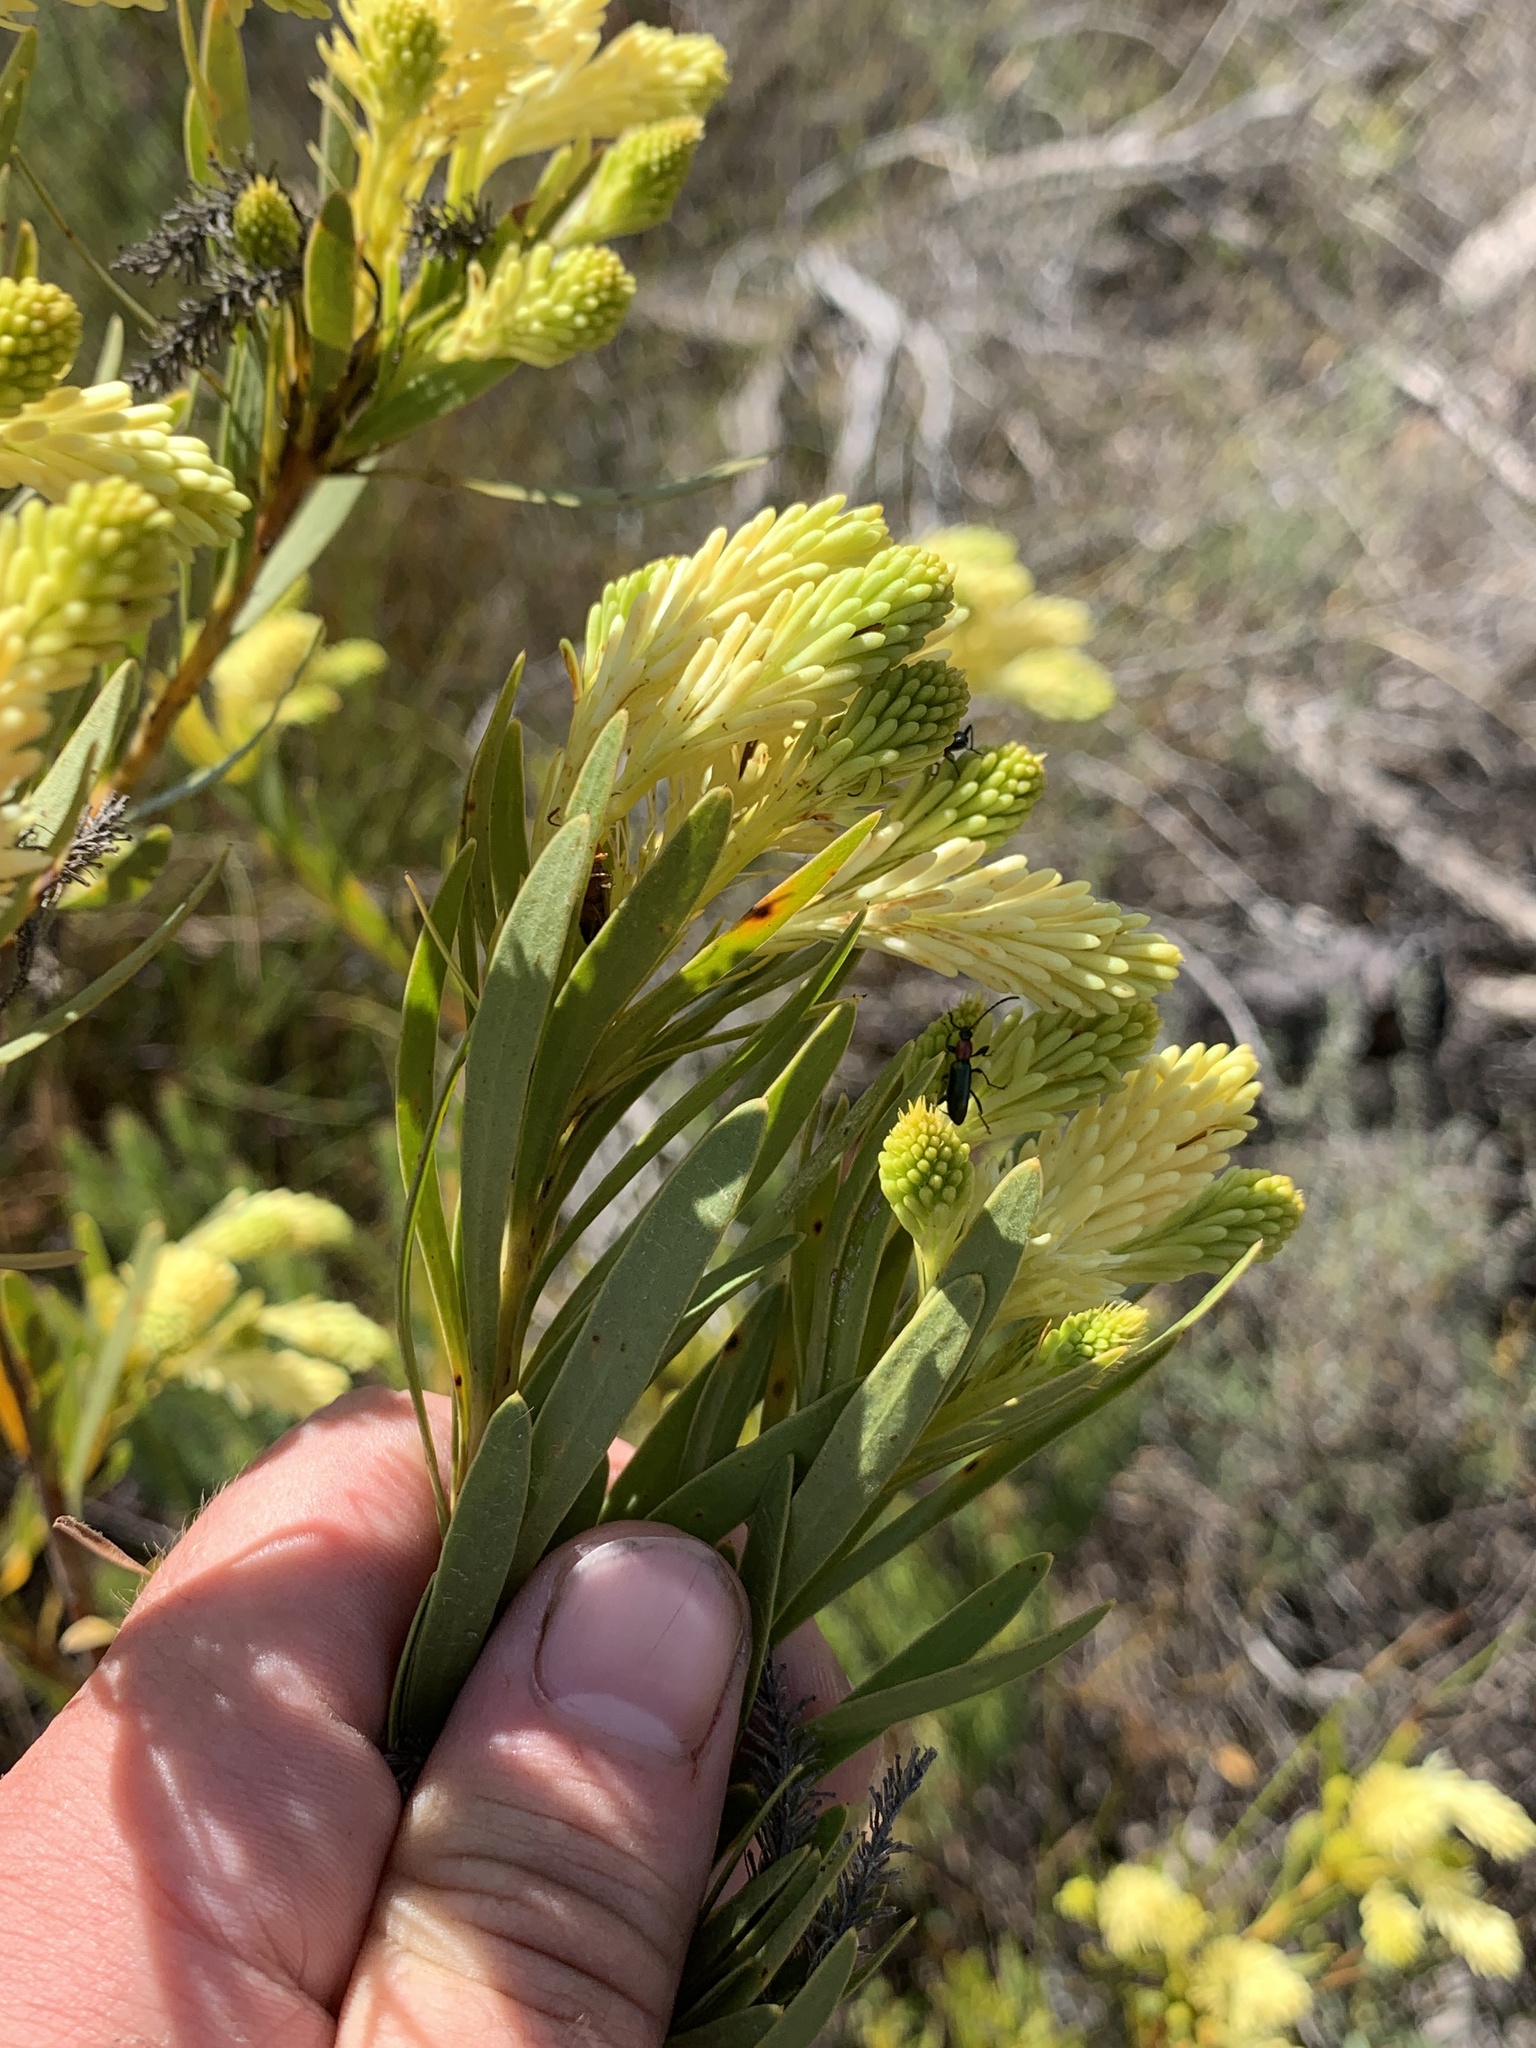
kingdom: Plantae
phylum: Tracheophyta
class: Magnoliopsida
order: Proteales
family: Proteaceae
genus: Aulax
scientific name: Aulax umbellata
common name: Broad-leaf featherbush
